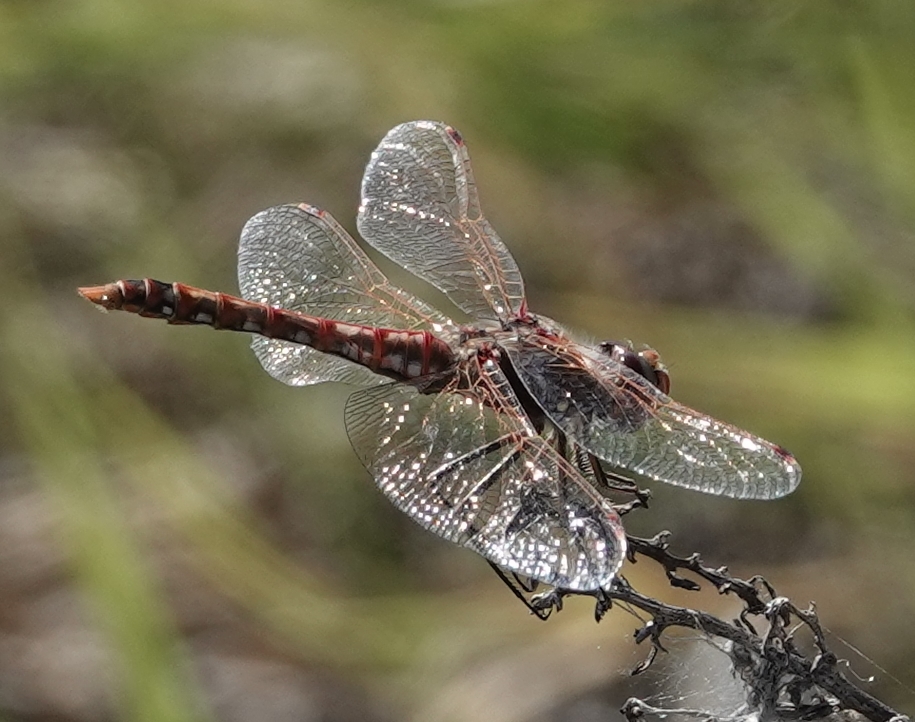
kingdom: Animalia
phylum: Arthropoda
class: Insecta
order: Odonata
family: Libellulidae
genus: Sympetrum
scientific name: Sympetrum corruptum
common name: Variegated meadowhawk
